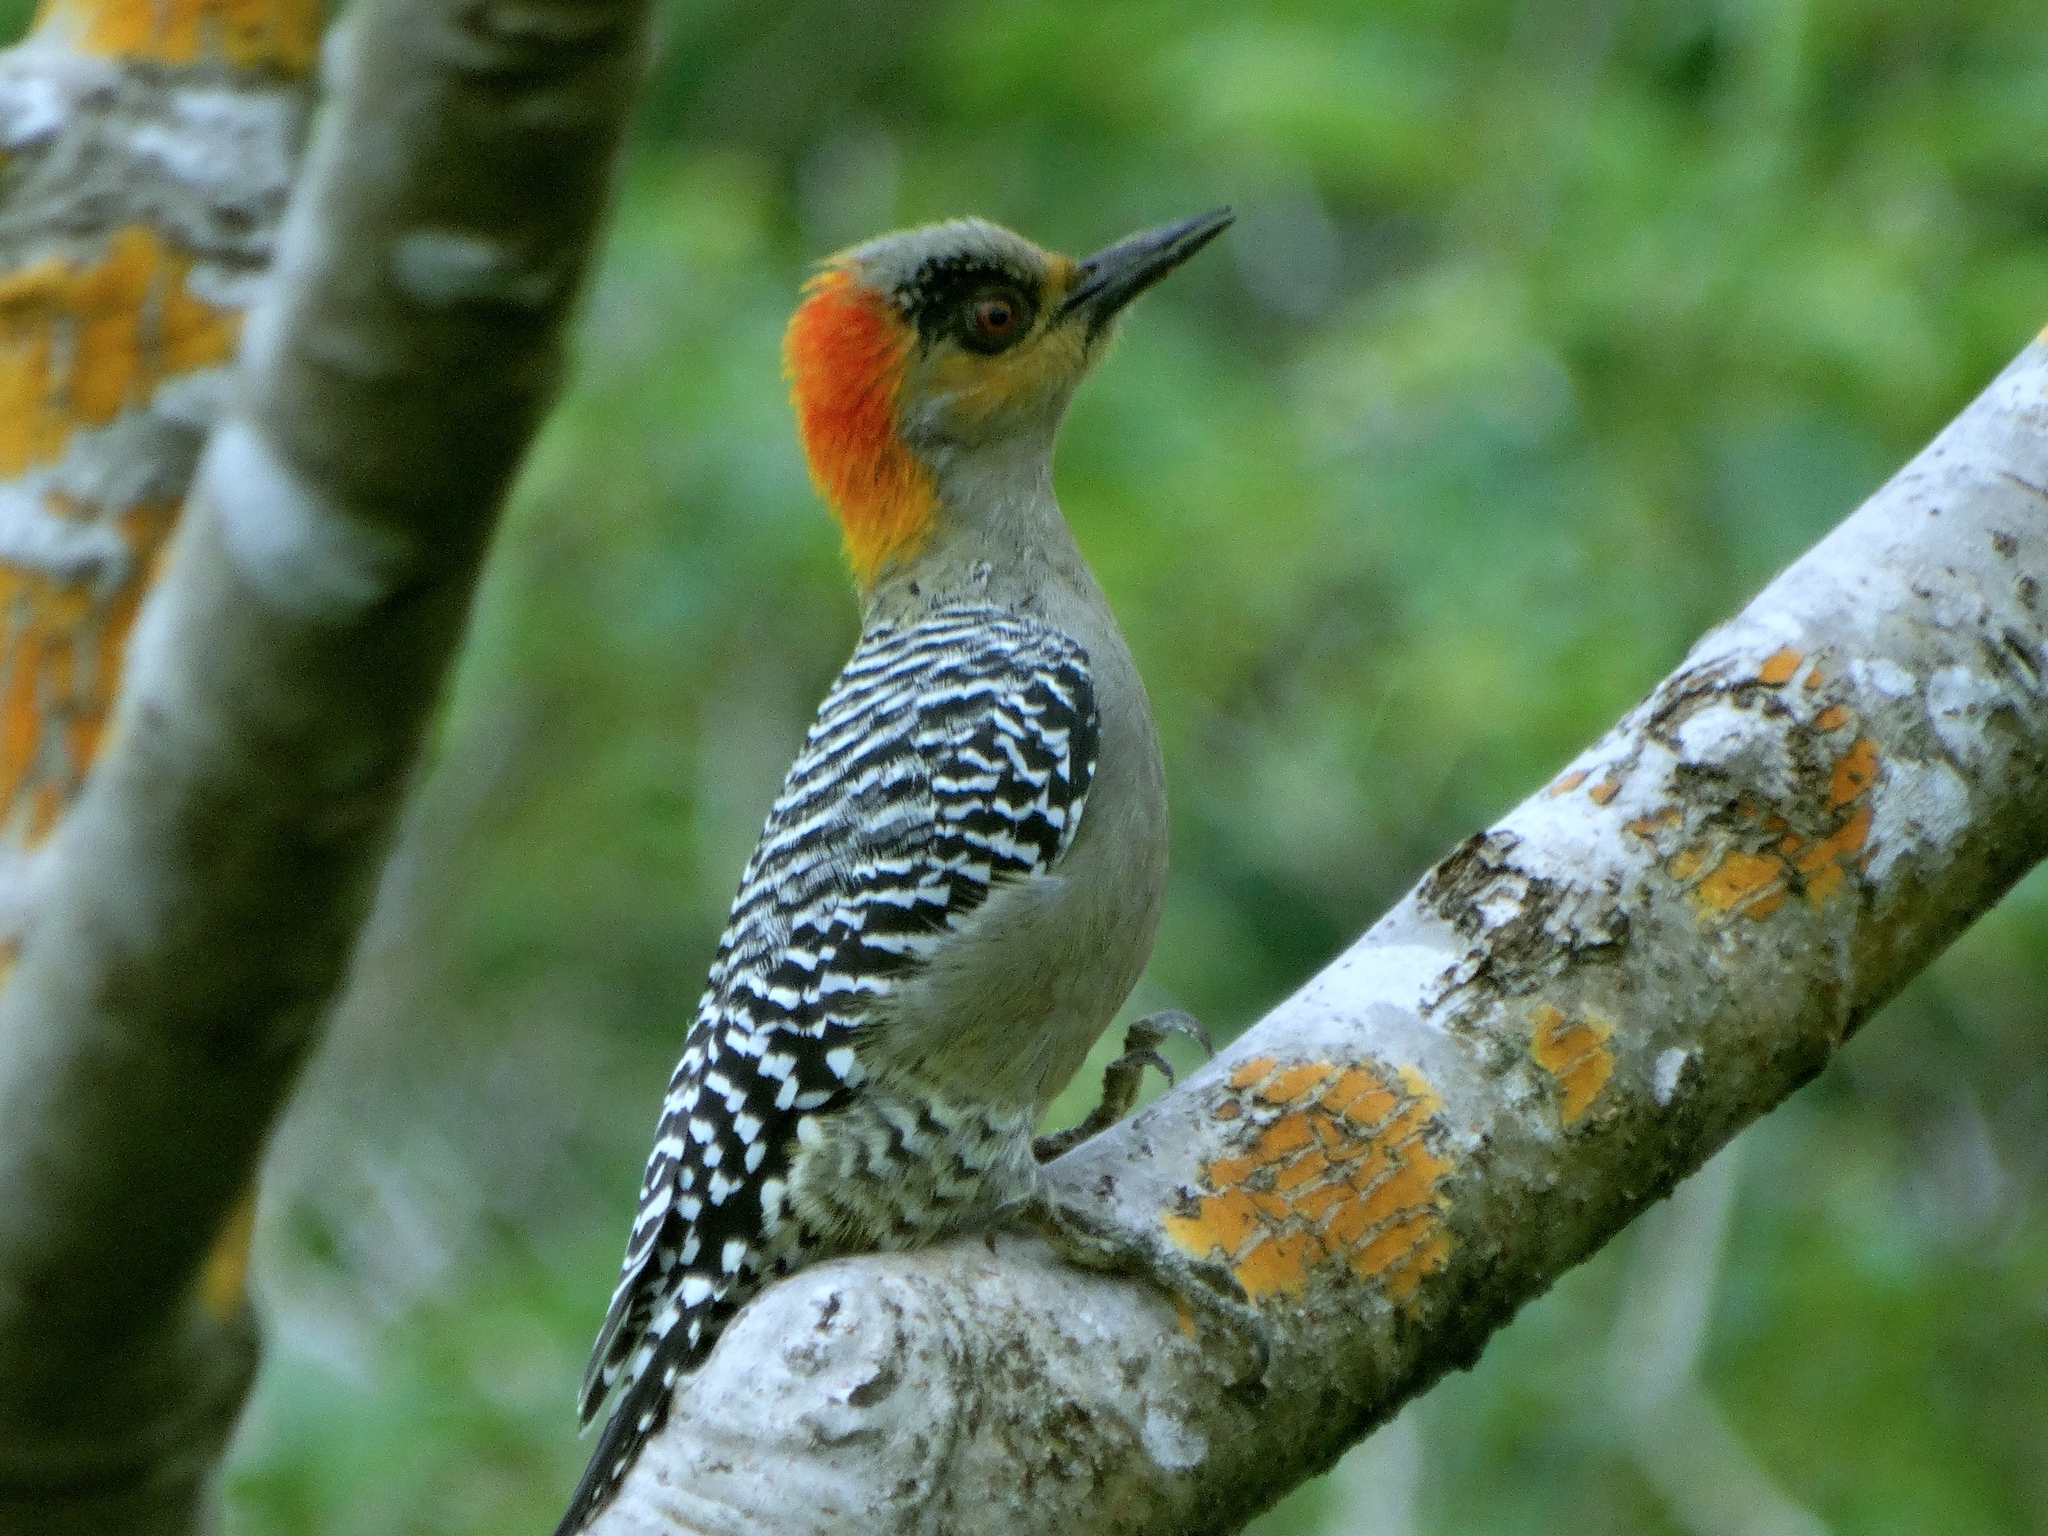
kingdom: Animalia
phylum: Chordata
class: Aves
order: Piciformes
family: Picidae
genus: Melanerpes
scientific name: Melanerpes chrysogenys
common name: Golden-cheeked woodpecker
